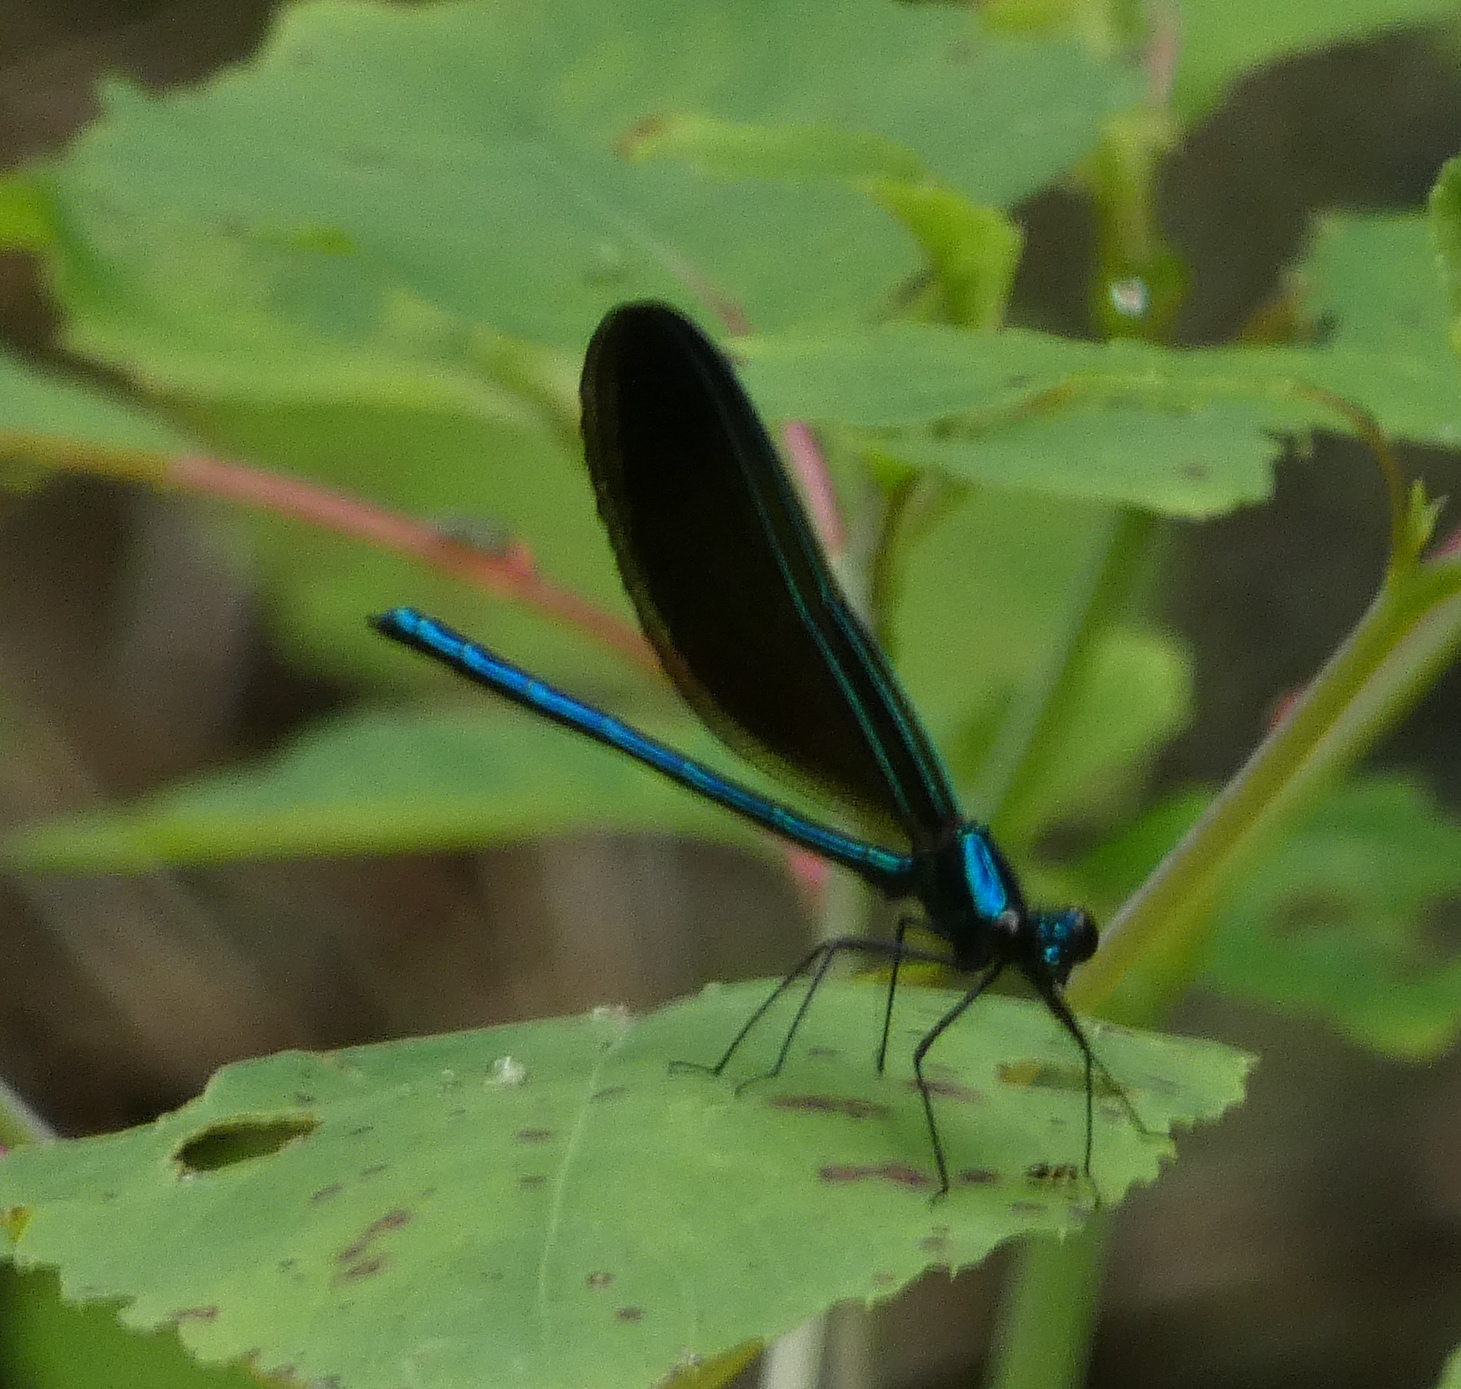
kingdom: Animalia
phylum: Arthropoda
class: Insecta
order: Odonata
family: Calopterygidae
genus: Calopteryx
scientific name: Calopteryx maculata
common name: Ebony jewelwing
